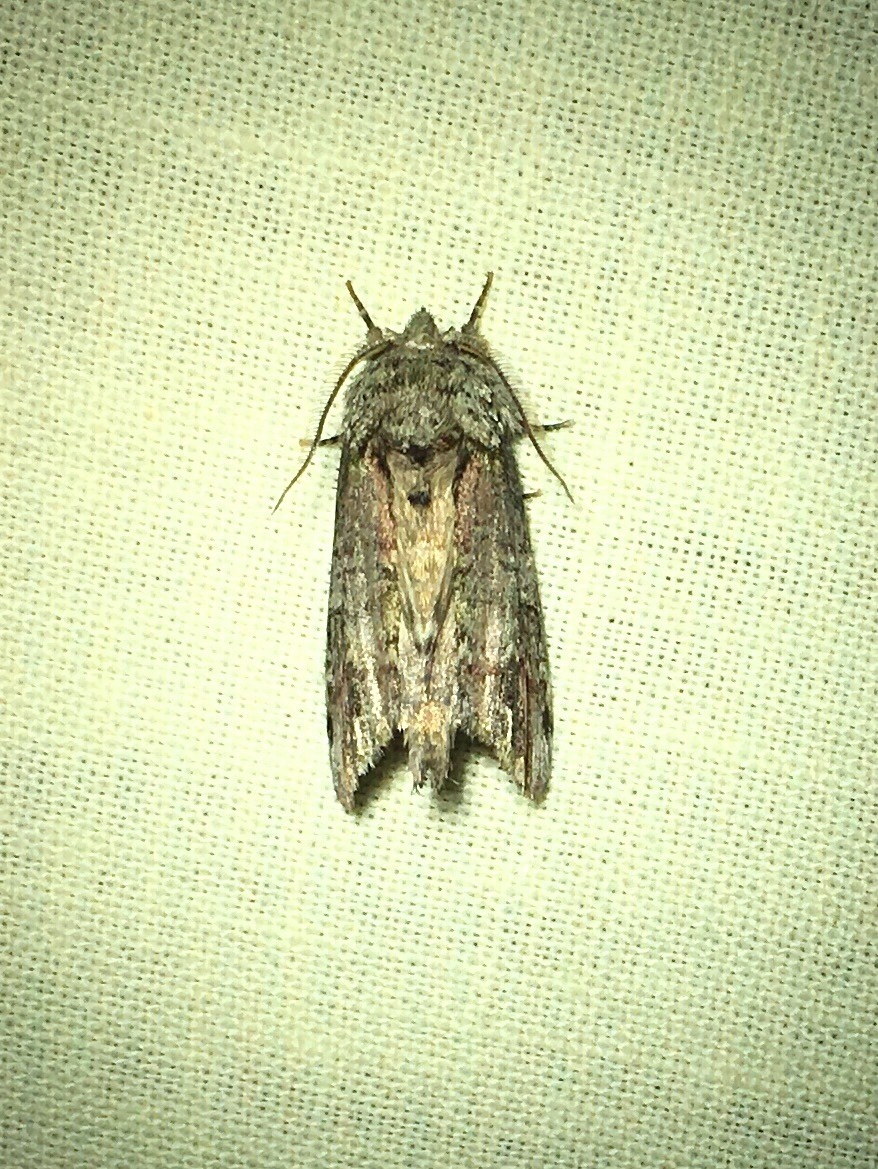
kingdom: Animalia
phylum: Arthropoda
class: Insecta
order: Lepidoptera
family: Notodontidae
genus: Schizura
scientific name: Schizura
